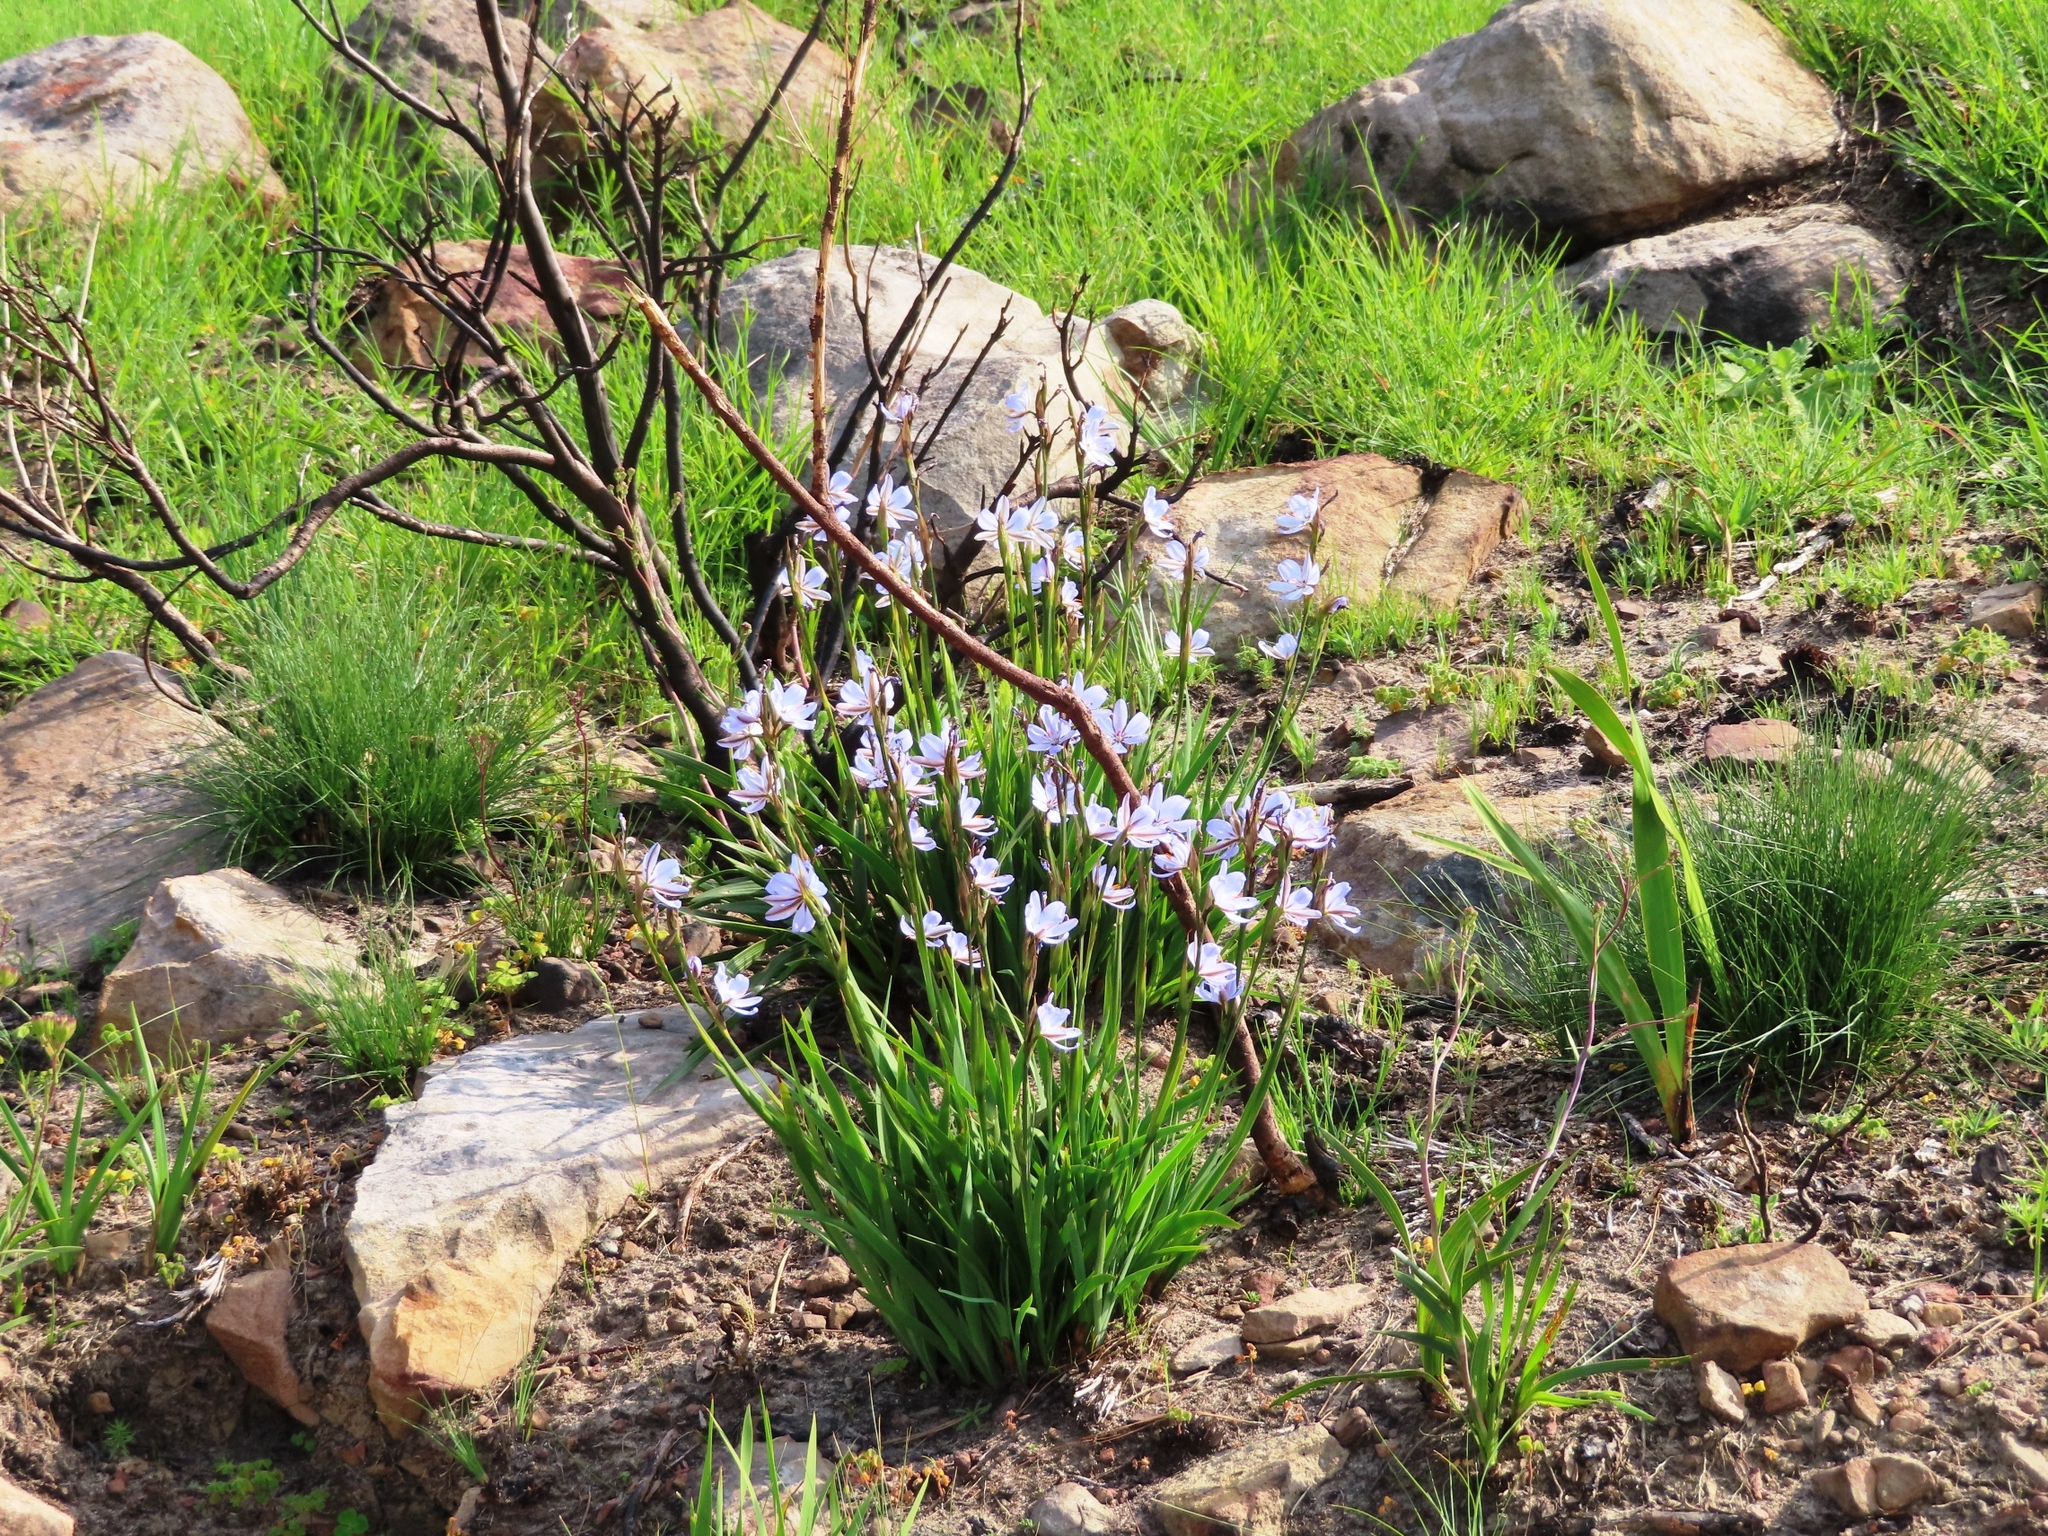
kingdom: Plantae
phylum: Tracheophyta
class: Liliopsida
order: Asparagales
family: Iridaceae
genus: Aristea
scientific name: Aristea spiralis
